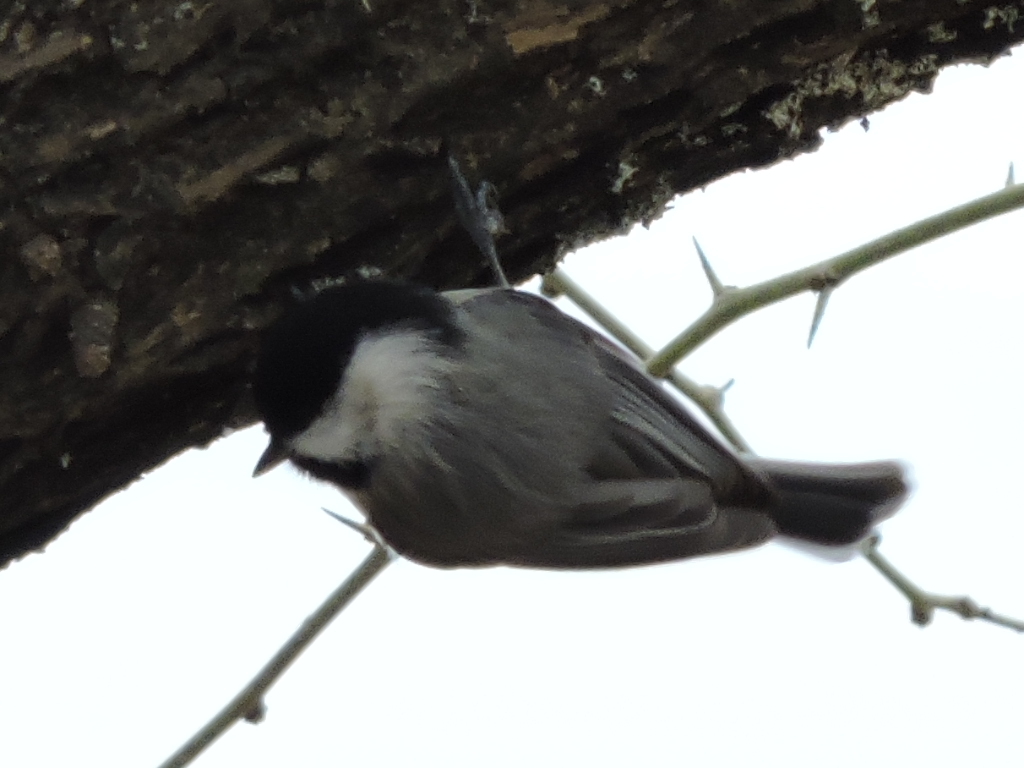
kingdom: Animalia
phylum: Chordata
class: Aves
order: Passeriformes
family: Paridae
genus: Poecile
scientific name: Poecile carolinensis
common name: Carolina chickadee
